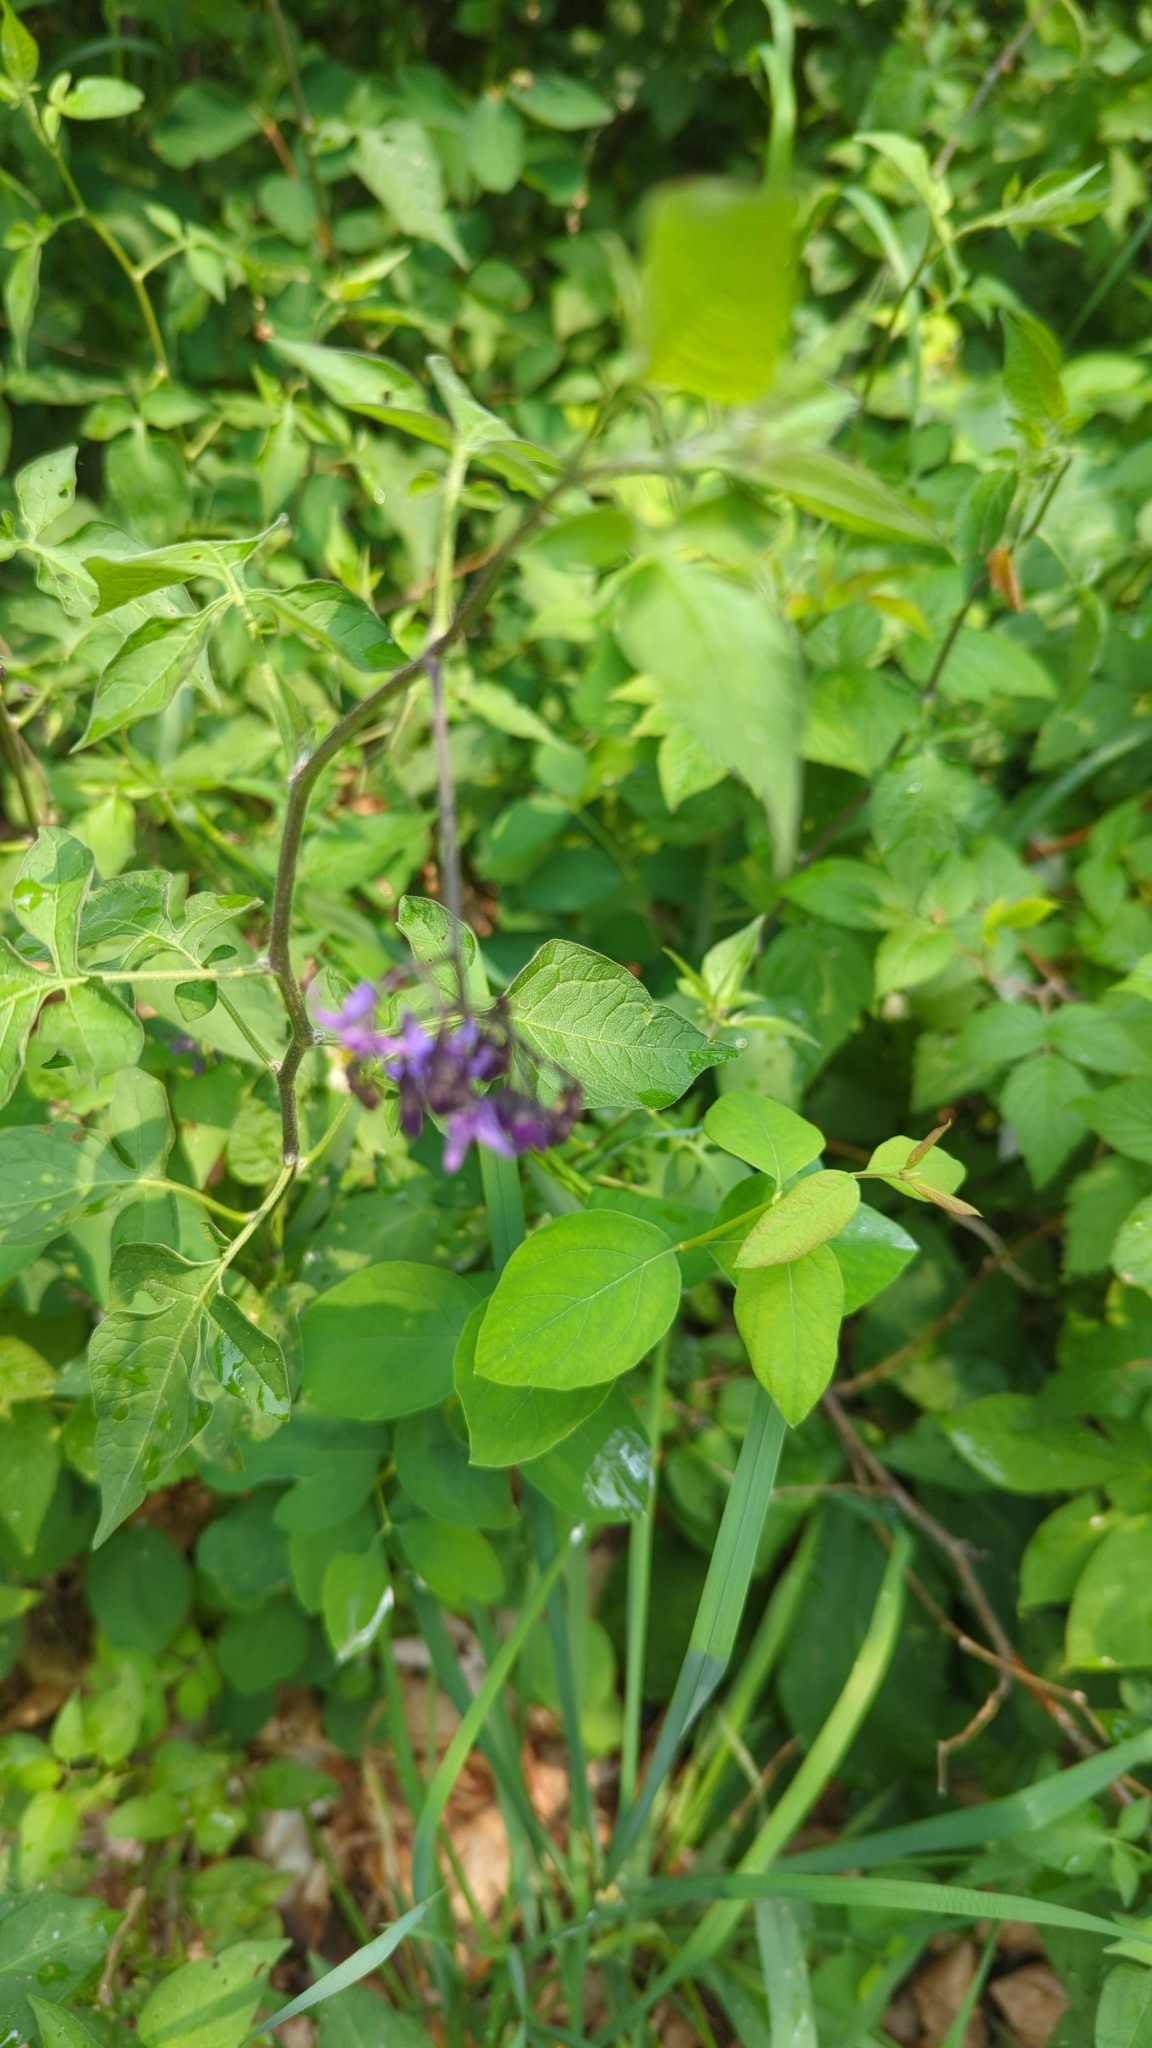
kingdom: Plantae
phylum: Tracheophyta
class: Magnoliopsida
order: Solanales
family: Solanaceae
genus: Solanum
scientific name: Solanum dulcamara
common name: Climbing nightshade
